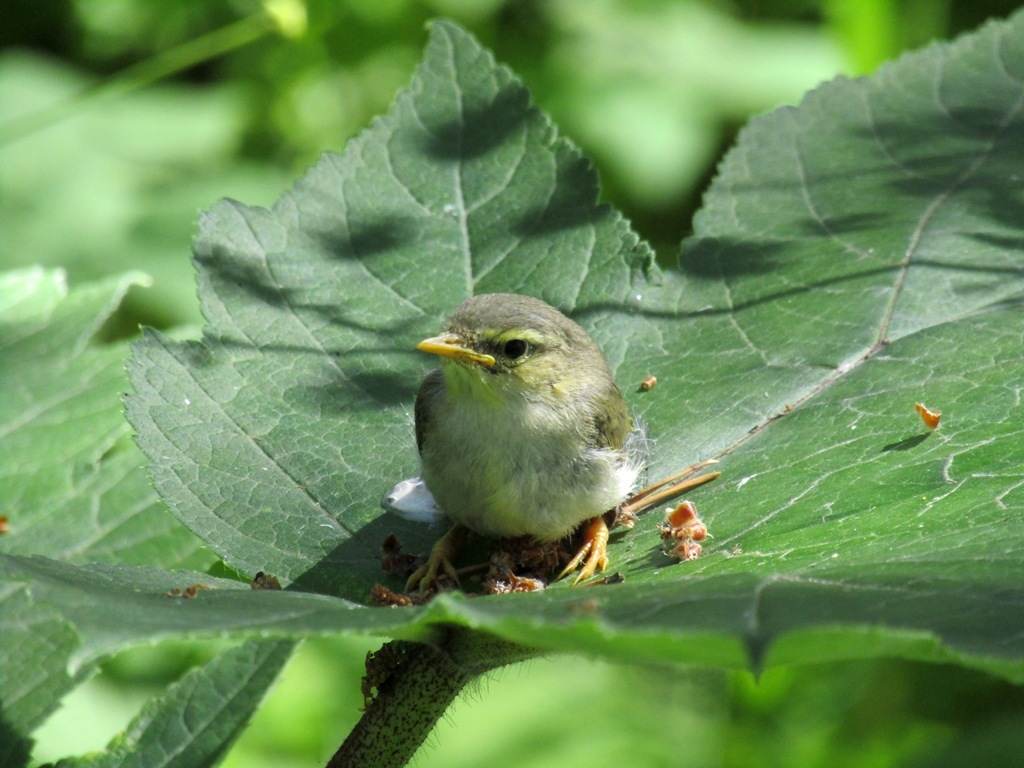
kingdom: Animalia
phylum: Chordata
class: Aves
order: Passeriformes
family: Phylloscopidae
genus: Phylloscopus
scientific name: Phylloscopus trochilus
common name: Willow warbler
